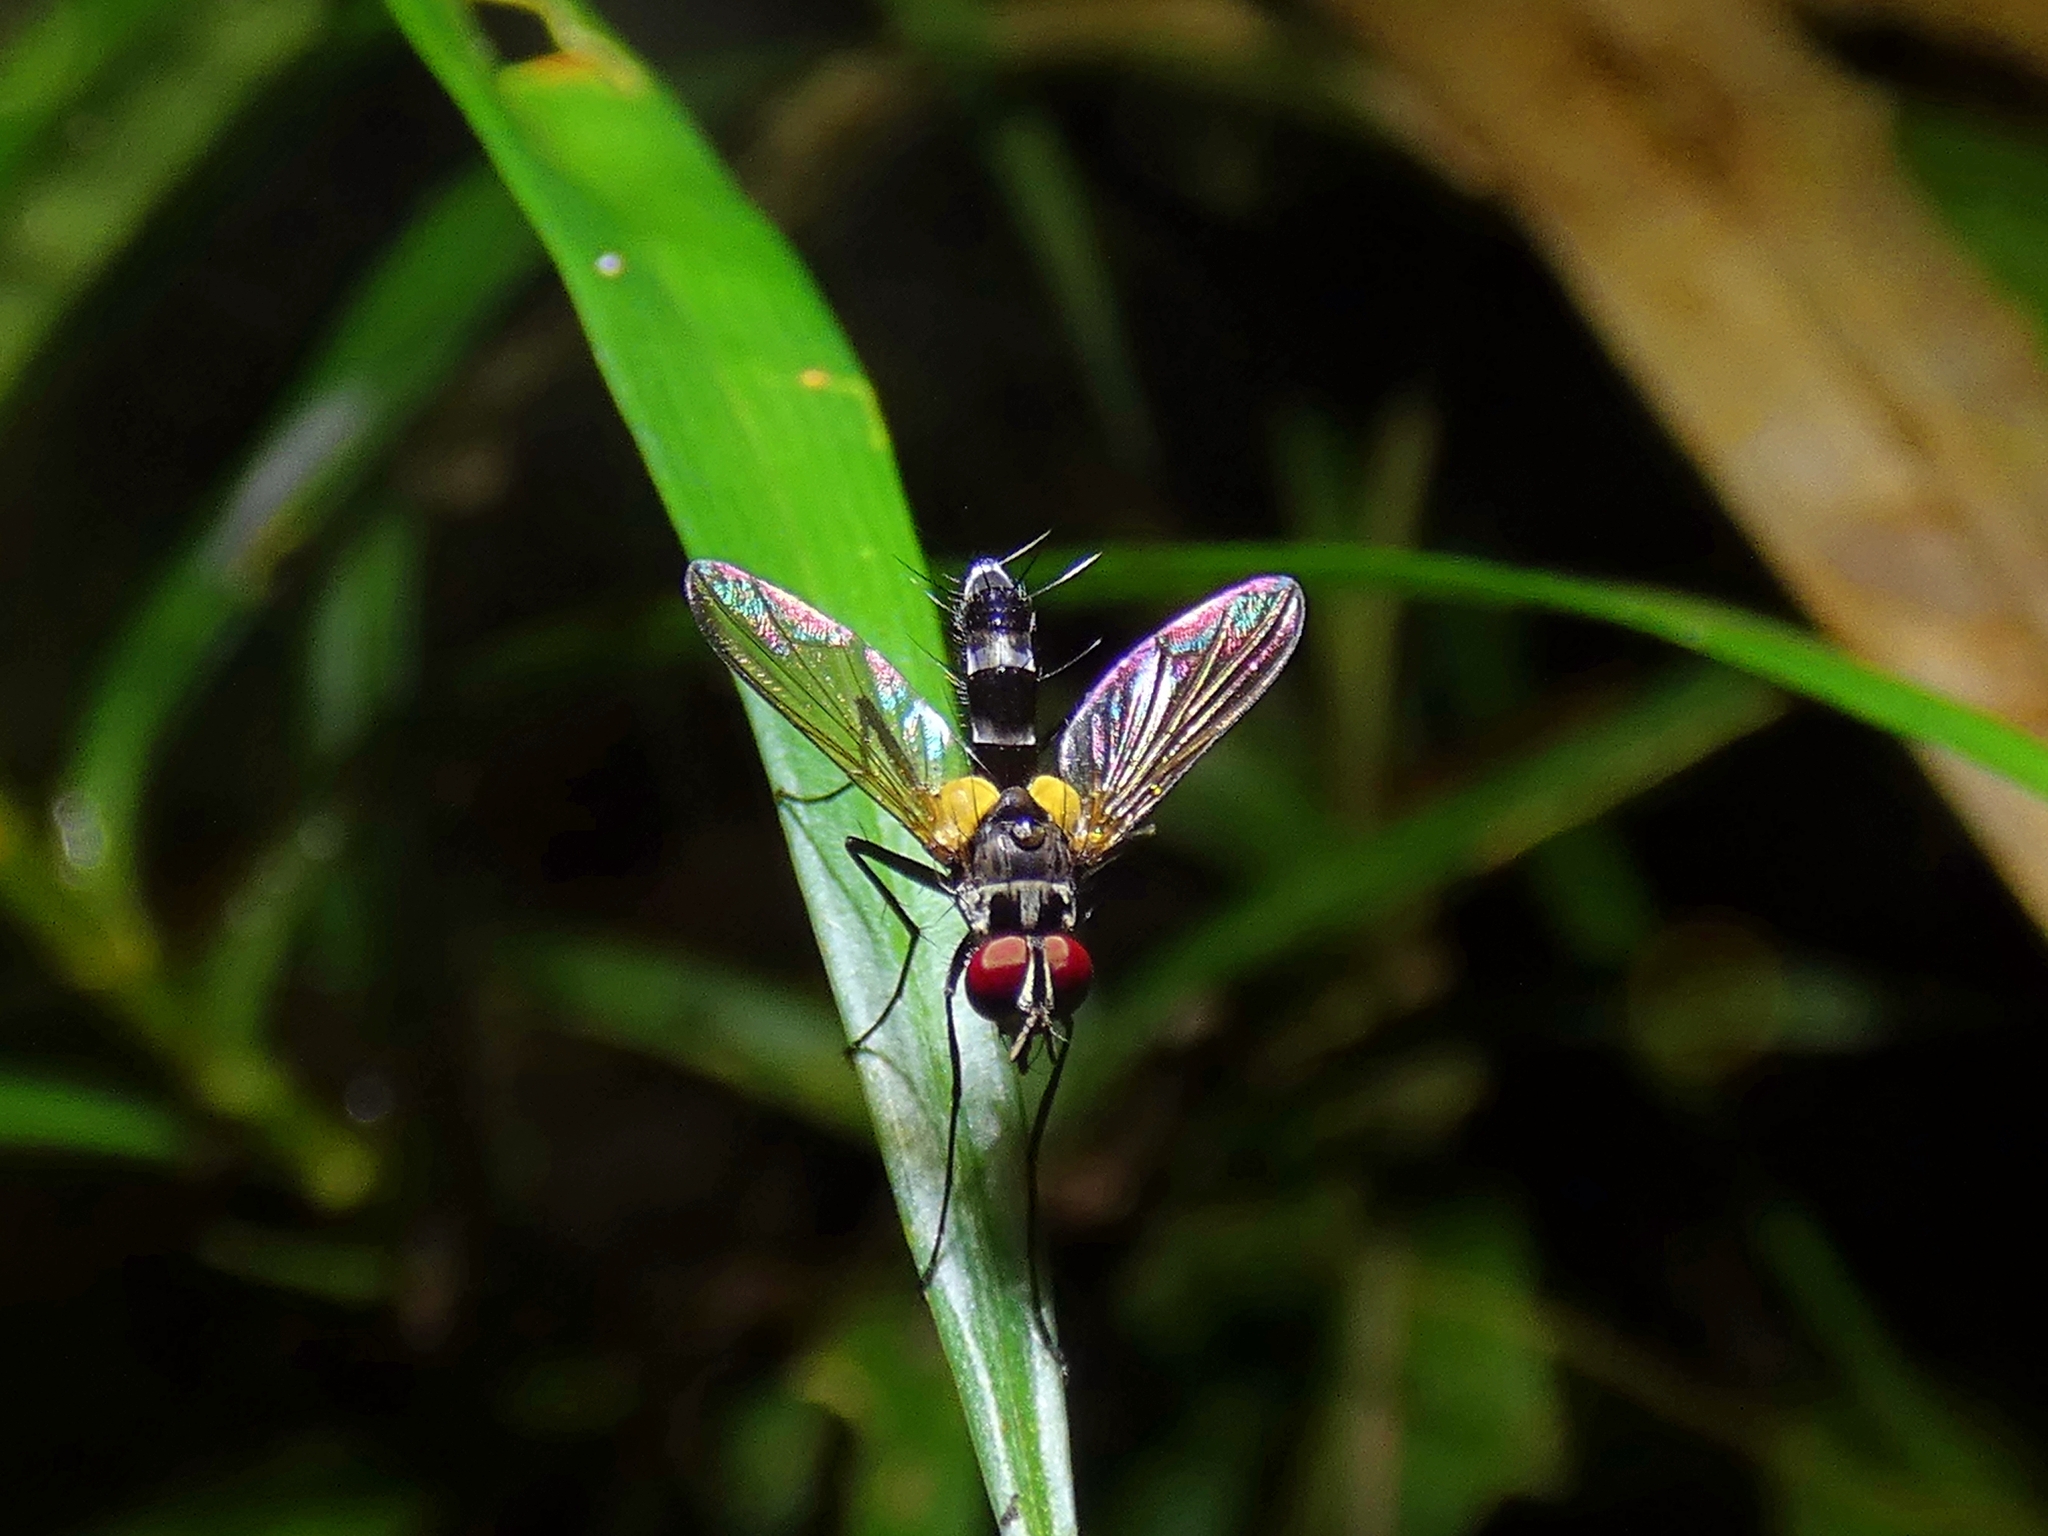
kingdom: Animalia
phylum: Arthropoda
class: Insecta
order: Diptera
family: Tachinidae
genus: Sumpigaster
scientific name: Sumpigaster fasciata
